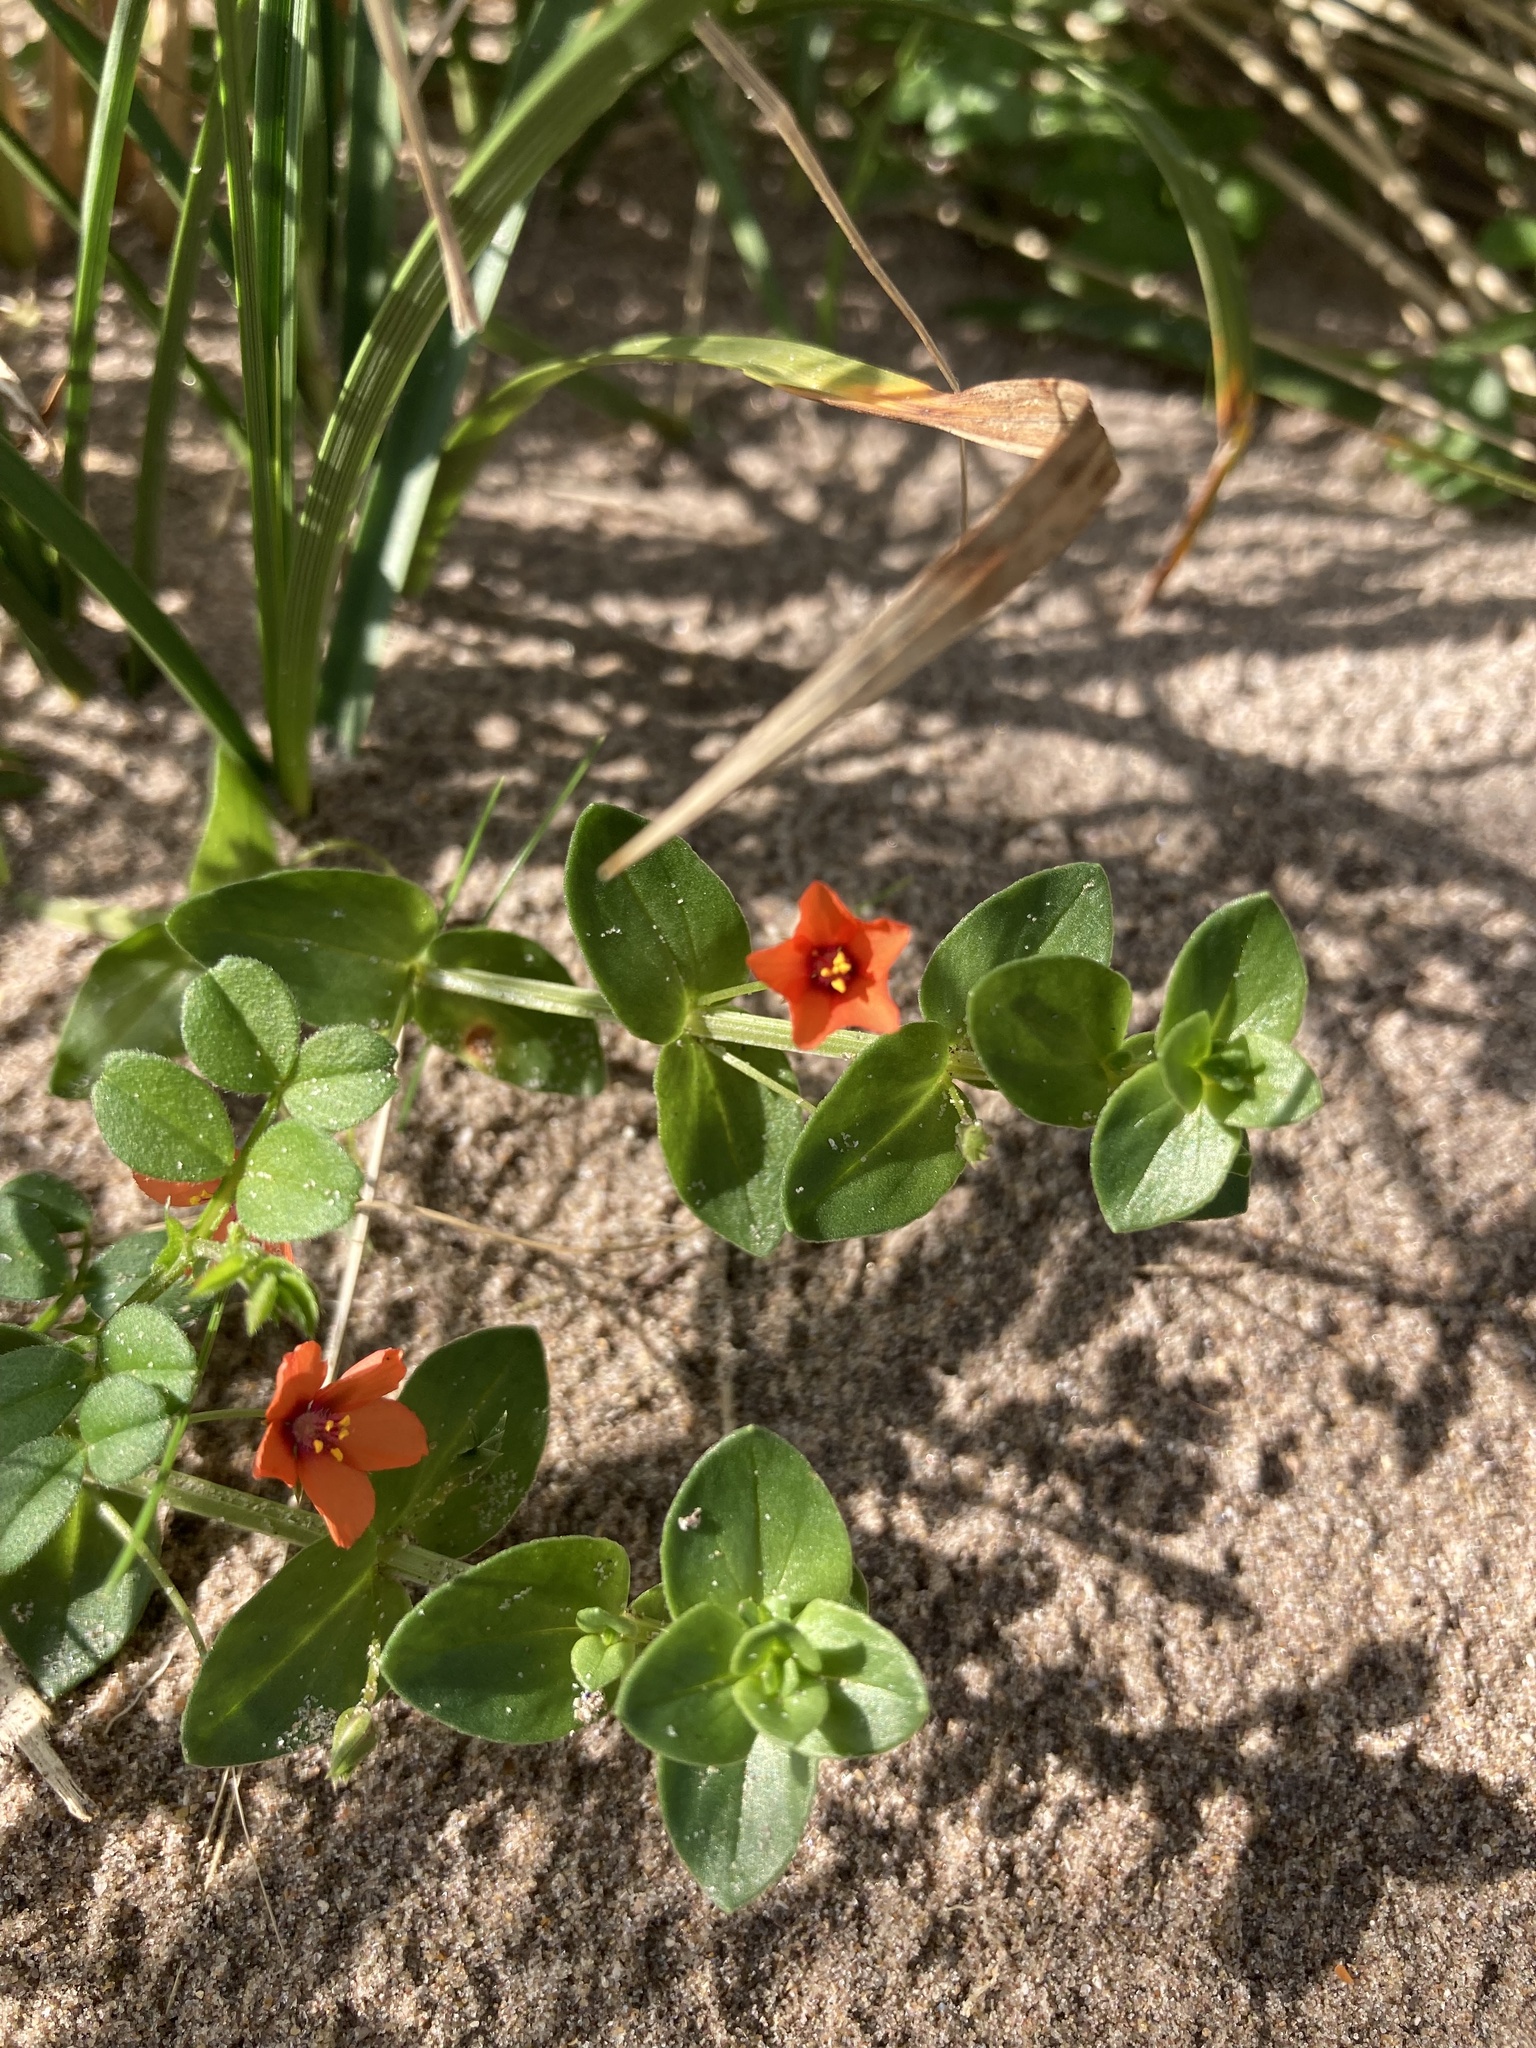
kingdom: Plantae
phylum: Tracheophyta
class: Magnoliopsida
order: Ericales
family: Primulaceae
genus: Lysimachia
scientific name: Lysimachia arvensis
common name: Scarlet pimpernel
